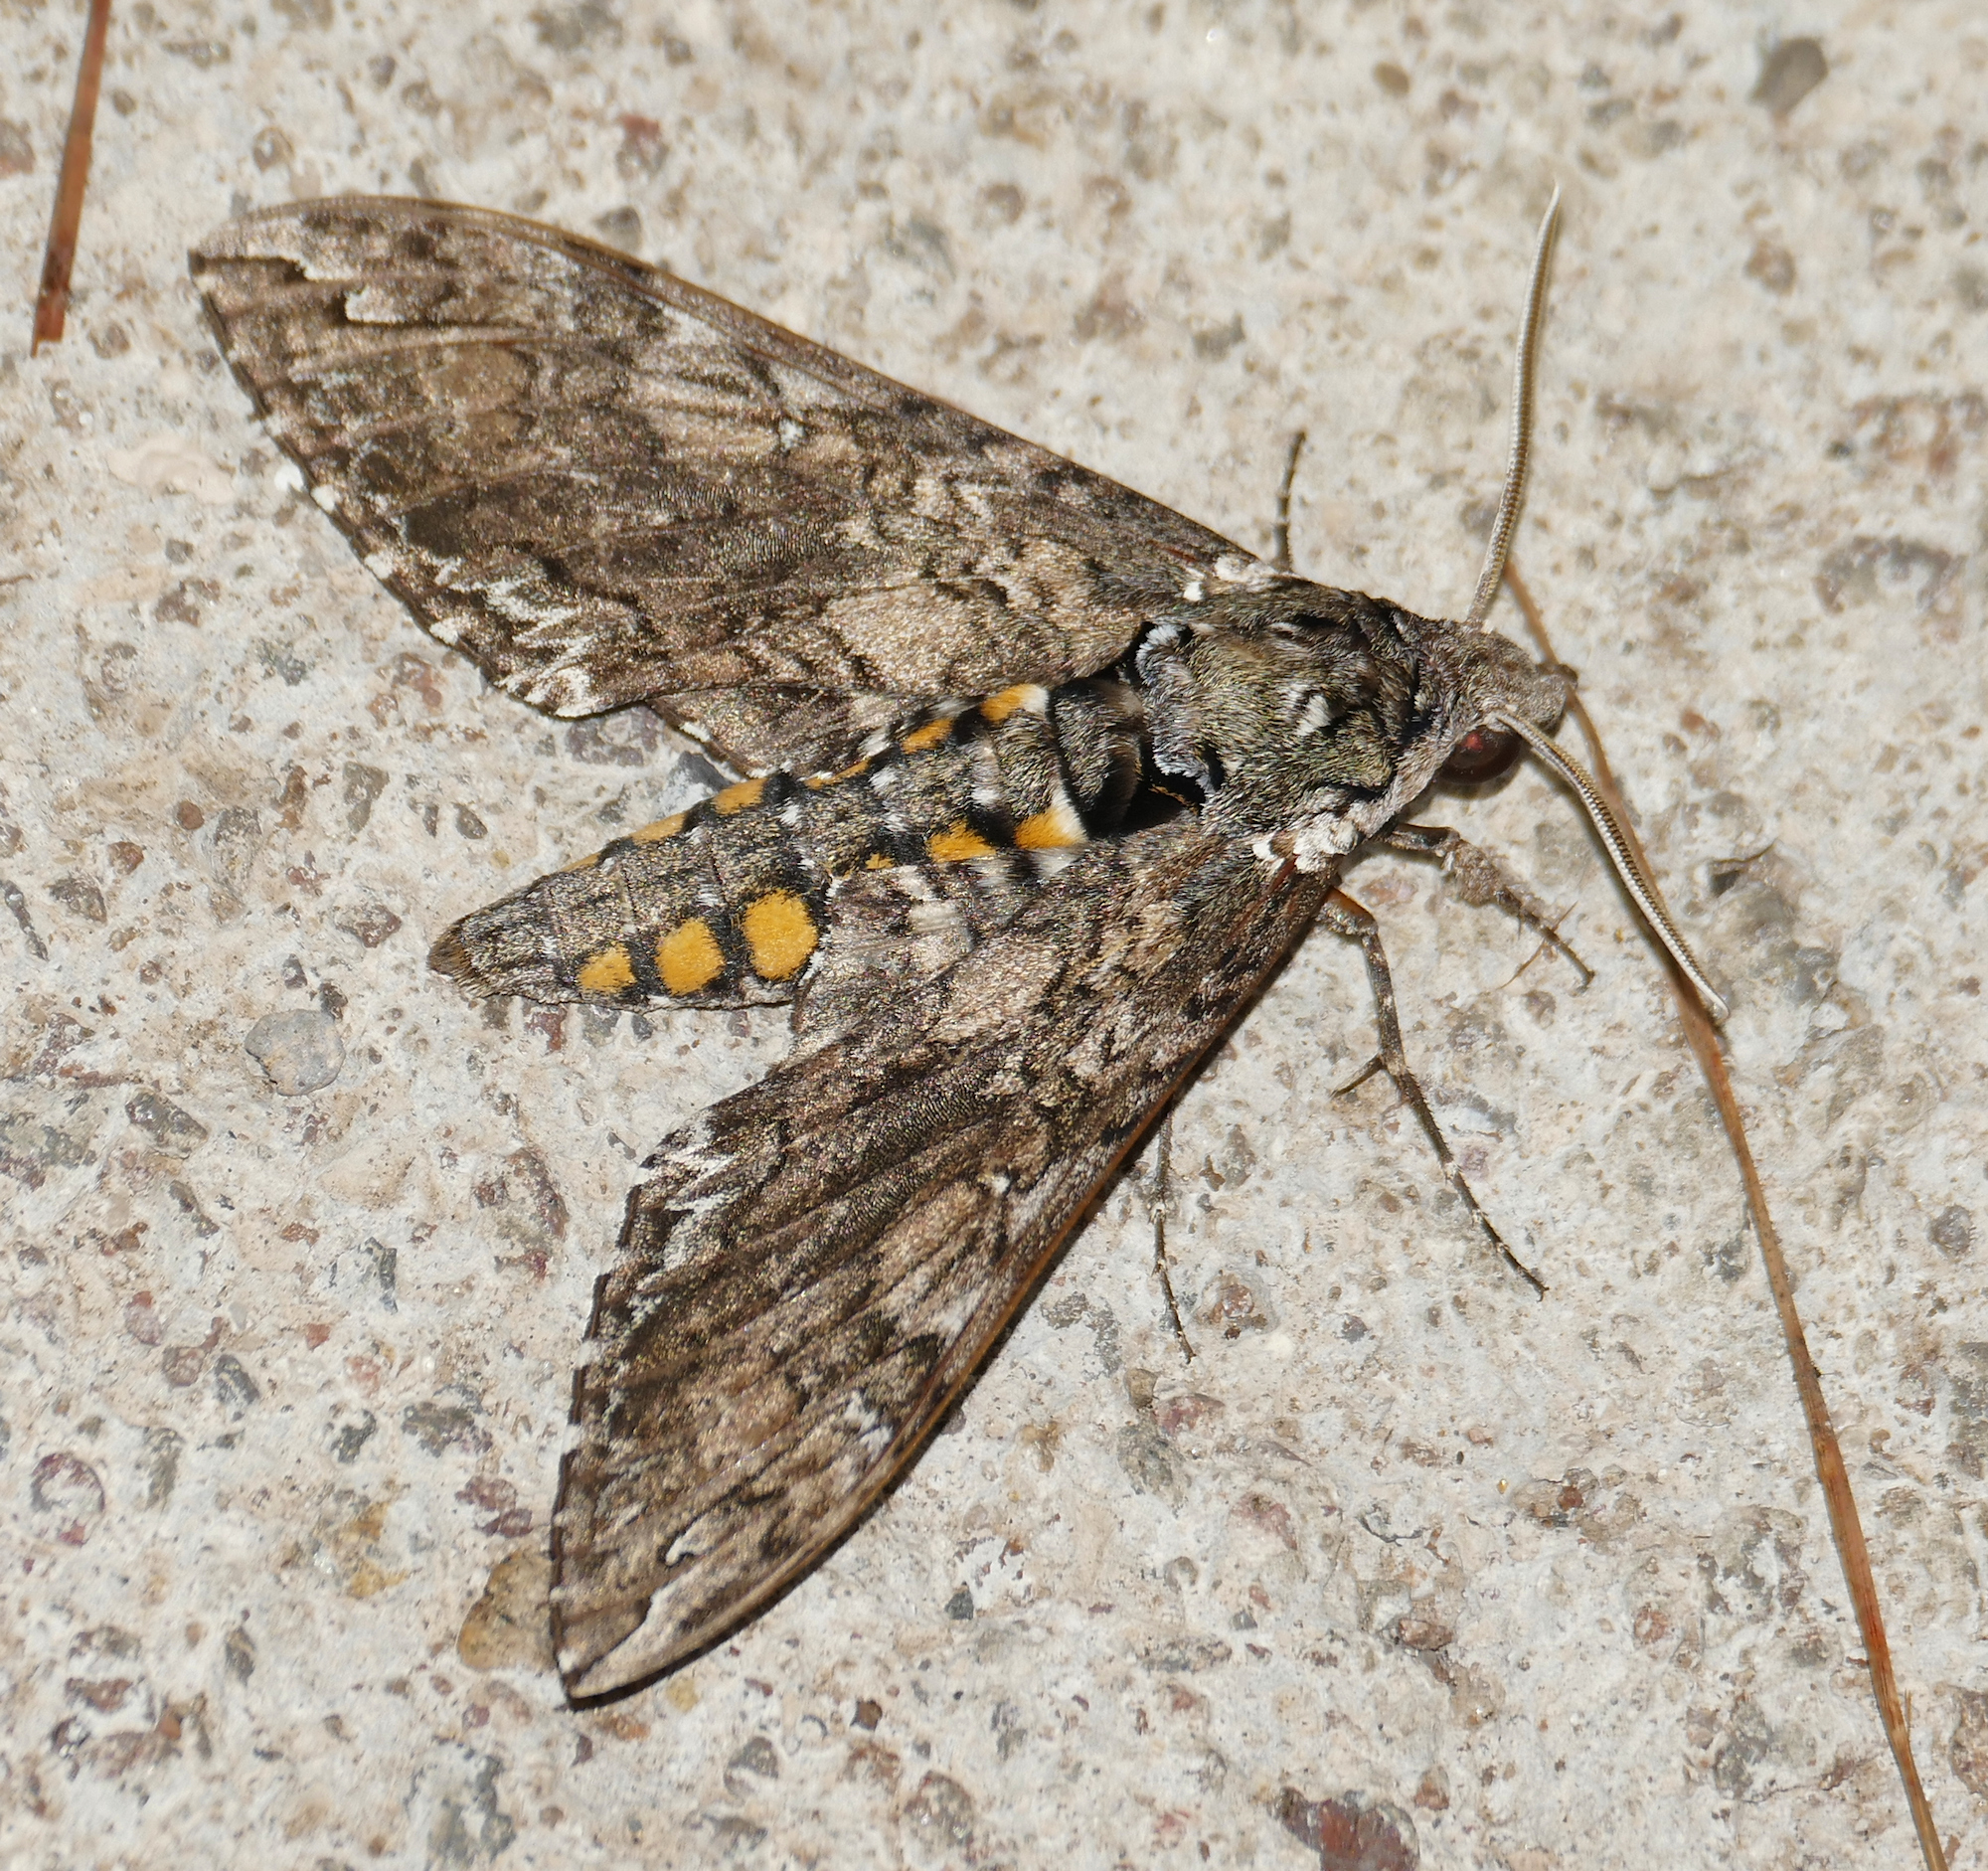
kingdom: Animalia
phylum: Arthropoda
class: Insecta
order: Lepidoptera
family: Sphingidae
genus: Manduca
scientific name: Manduca sexta
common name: Carolina sphinx
